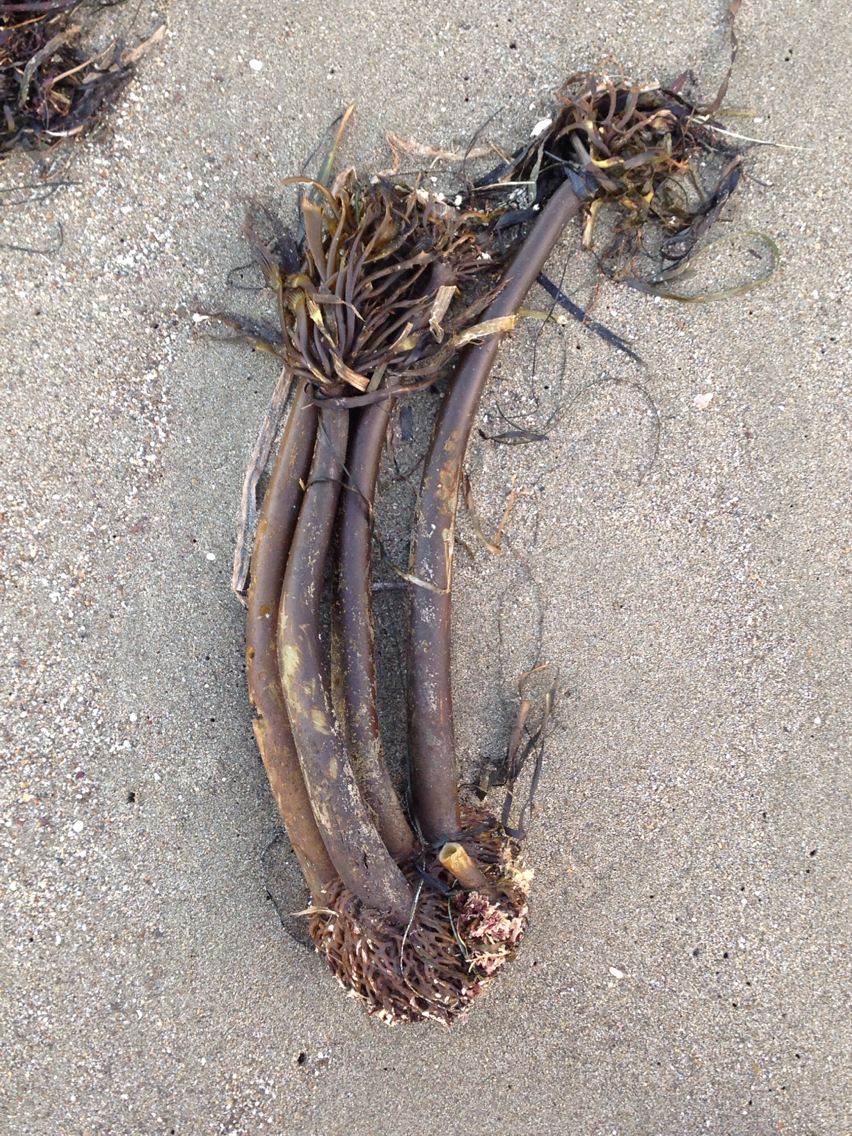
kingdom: Chromista
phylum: Ochrophyta
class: Phaeophyceae
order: Laminariales
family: Laminariaceae
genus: Postelsia
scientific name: Postelsia palmiformis
